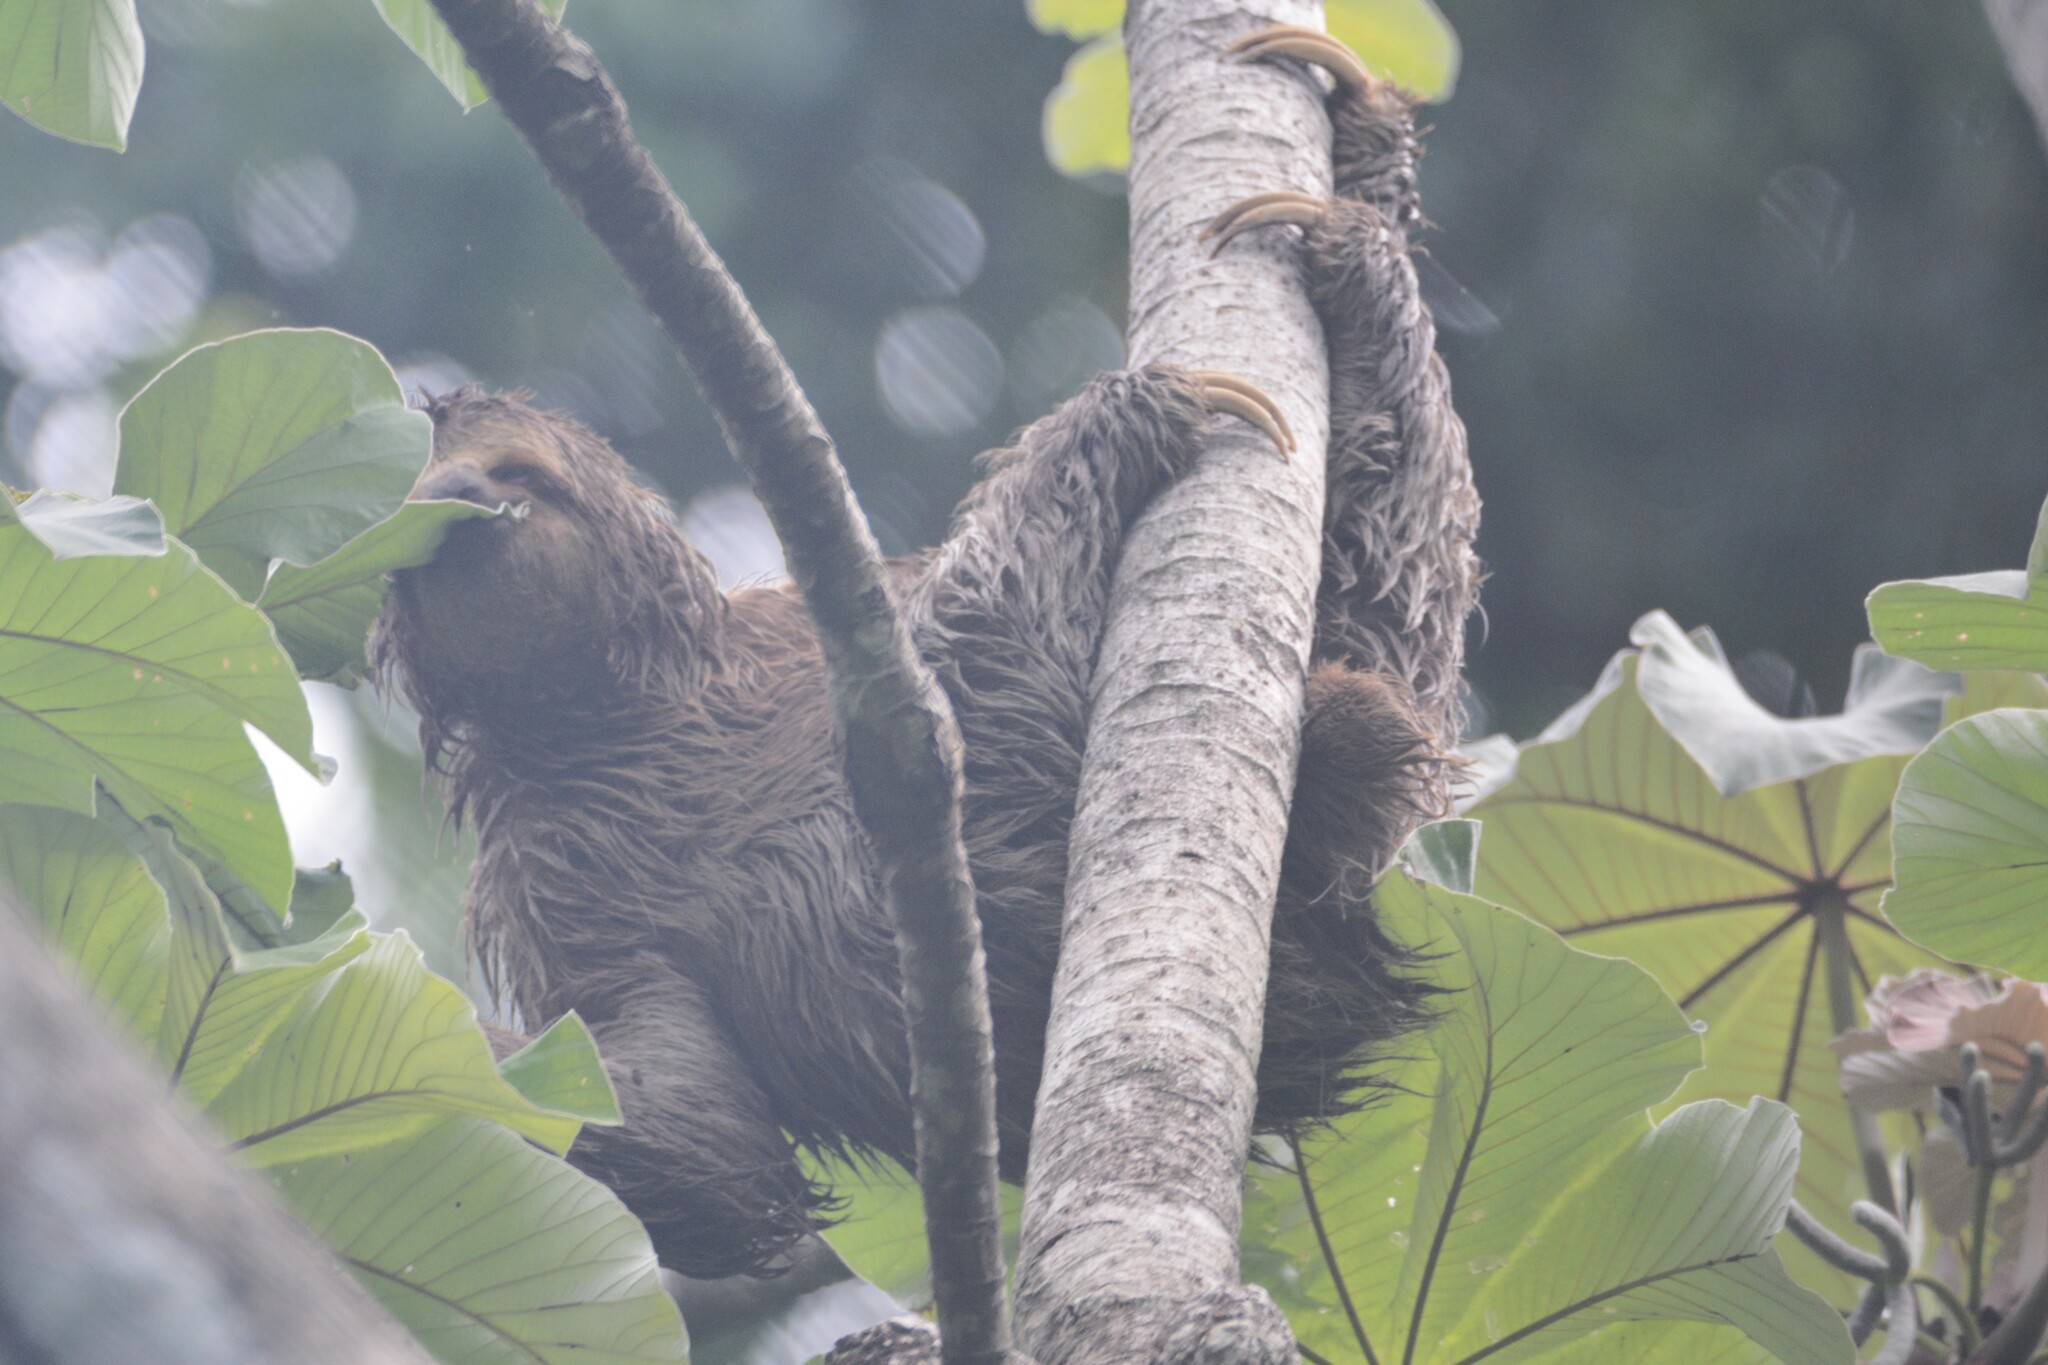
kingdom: Animalia
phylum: Chordata
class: Mammalia
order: Pilosa
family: Bradypodidae
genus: Bradypus
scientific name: Bradypus variegatus
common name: Brown-throated three-toed sloth
